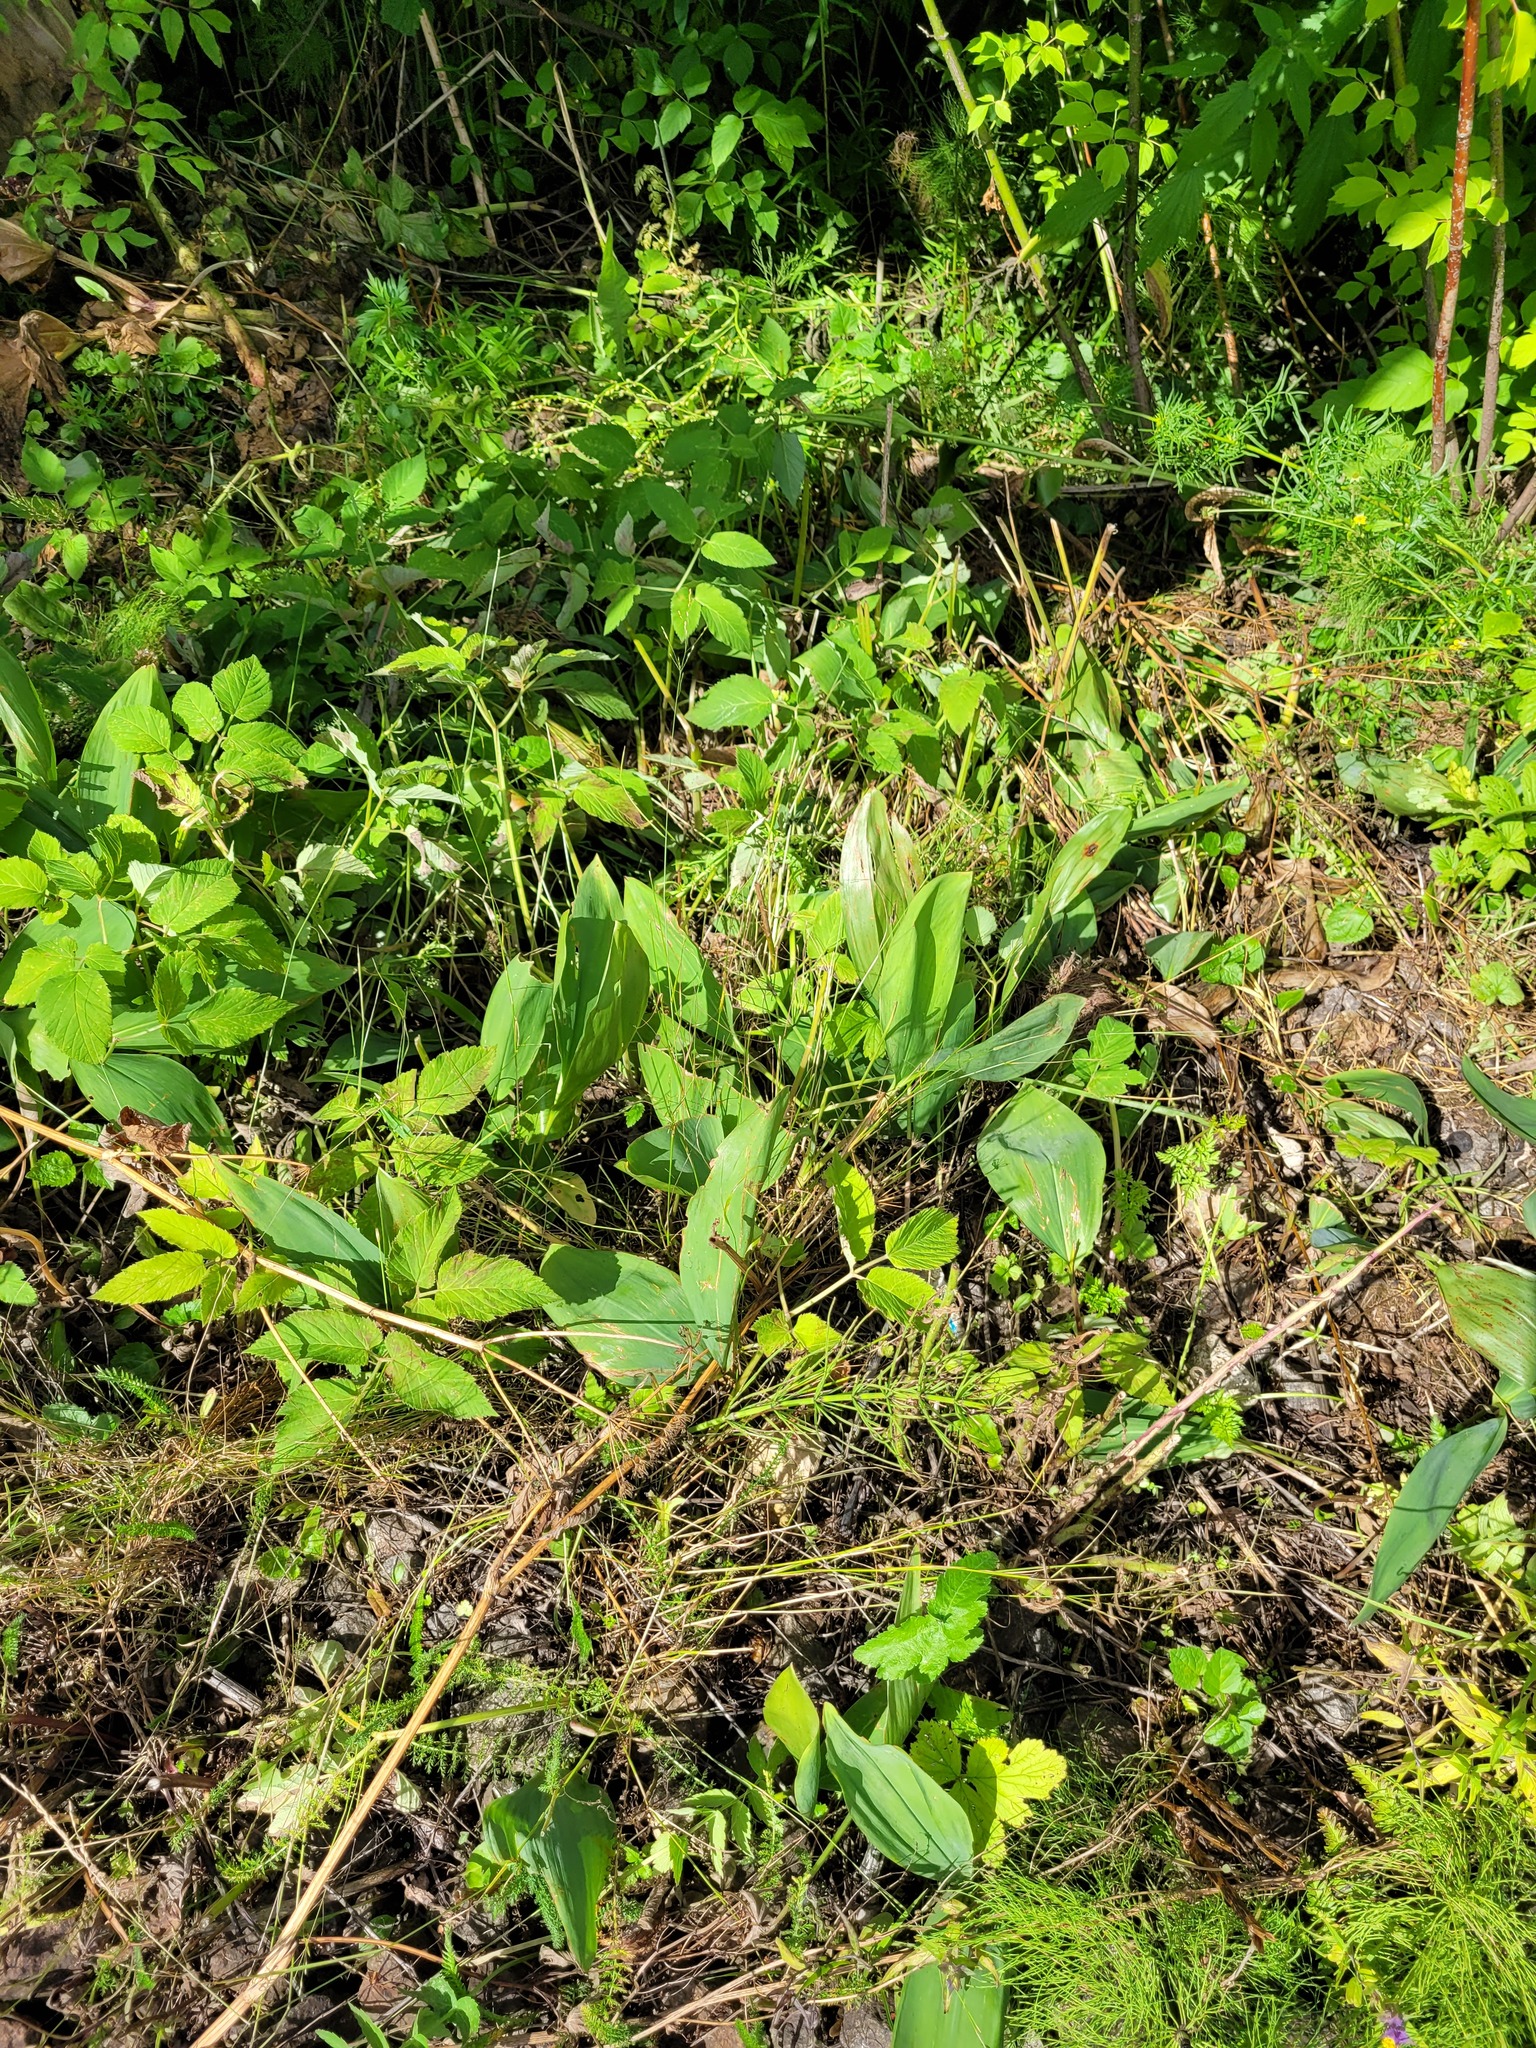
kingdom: Plantae
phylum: Tracheophyta
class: Liliopsida
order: Asparagales
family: Asparagaceae
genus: Convallaria
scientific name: Convallaria majalis
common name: Lily-of-the-valley
